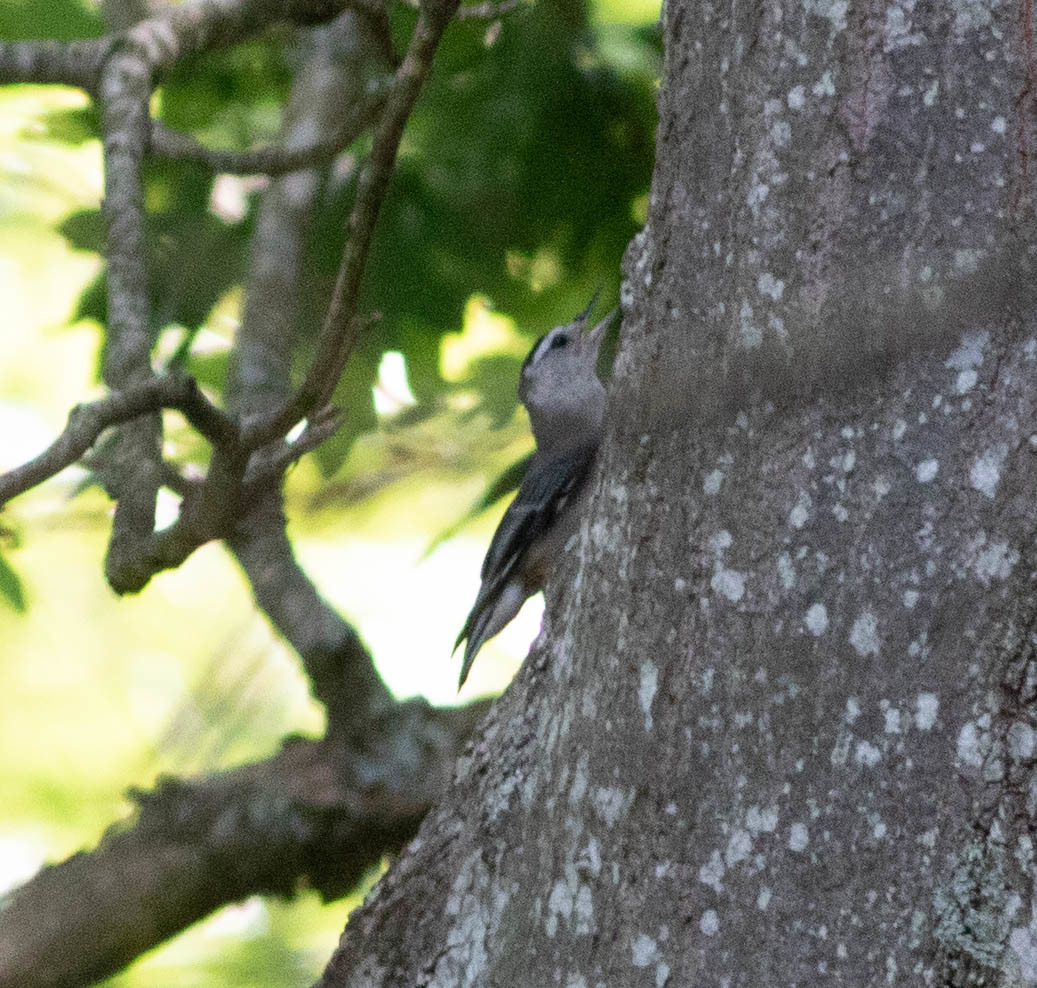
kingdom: Animalia
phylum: Chordata
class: Aves
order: Passeriformes
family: Sittidae
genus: Sitta
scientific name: Sitta carolinensis
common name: White-breasted nuthatch
